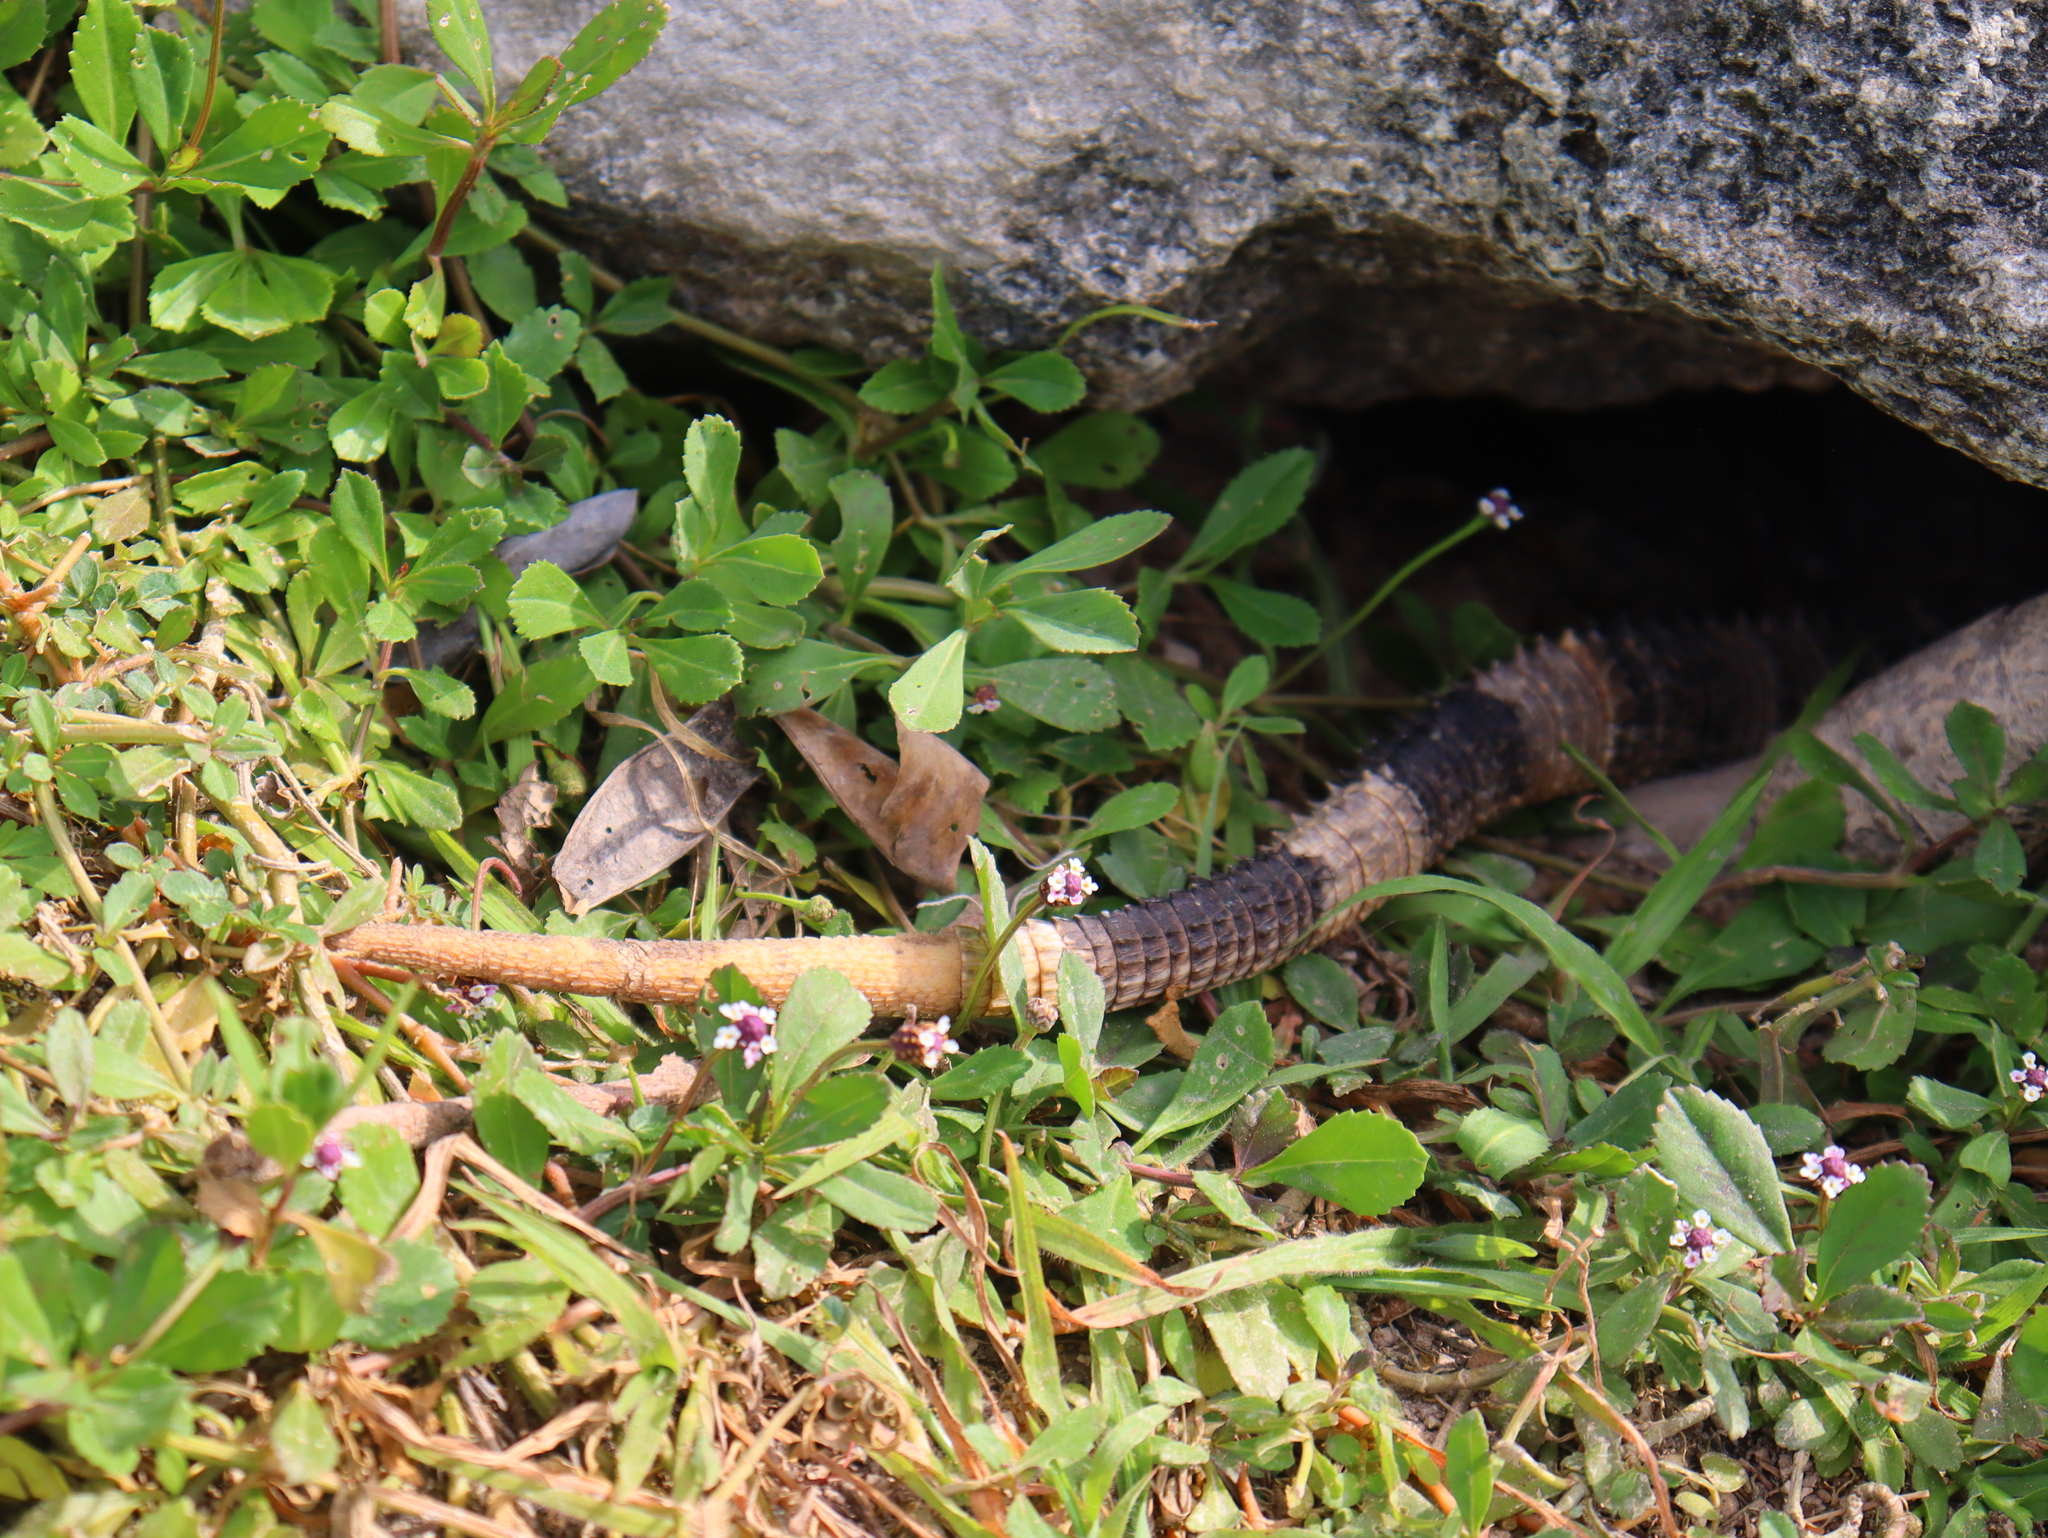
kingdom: Animalia
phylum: Chordata
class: Squamata
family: Iguanidae
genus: Ctenosaura
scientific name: Ctenosaura similis
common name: Black spiny-tailed iguana
